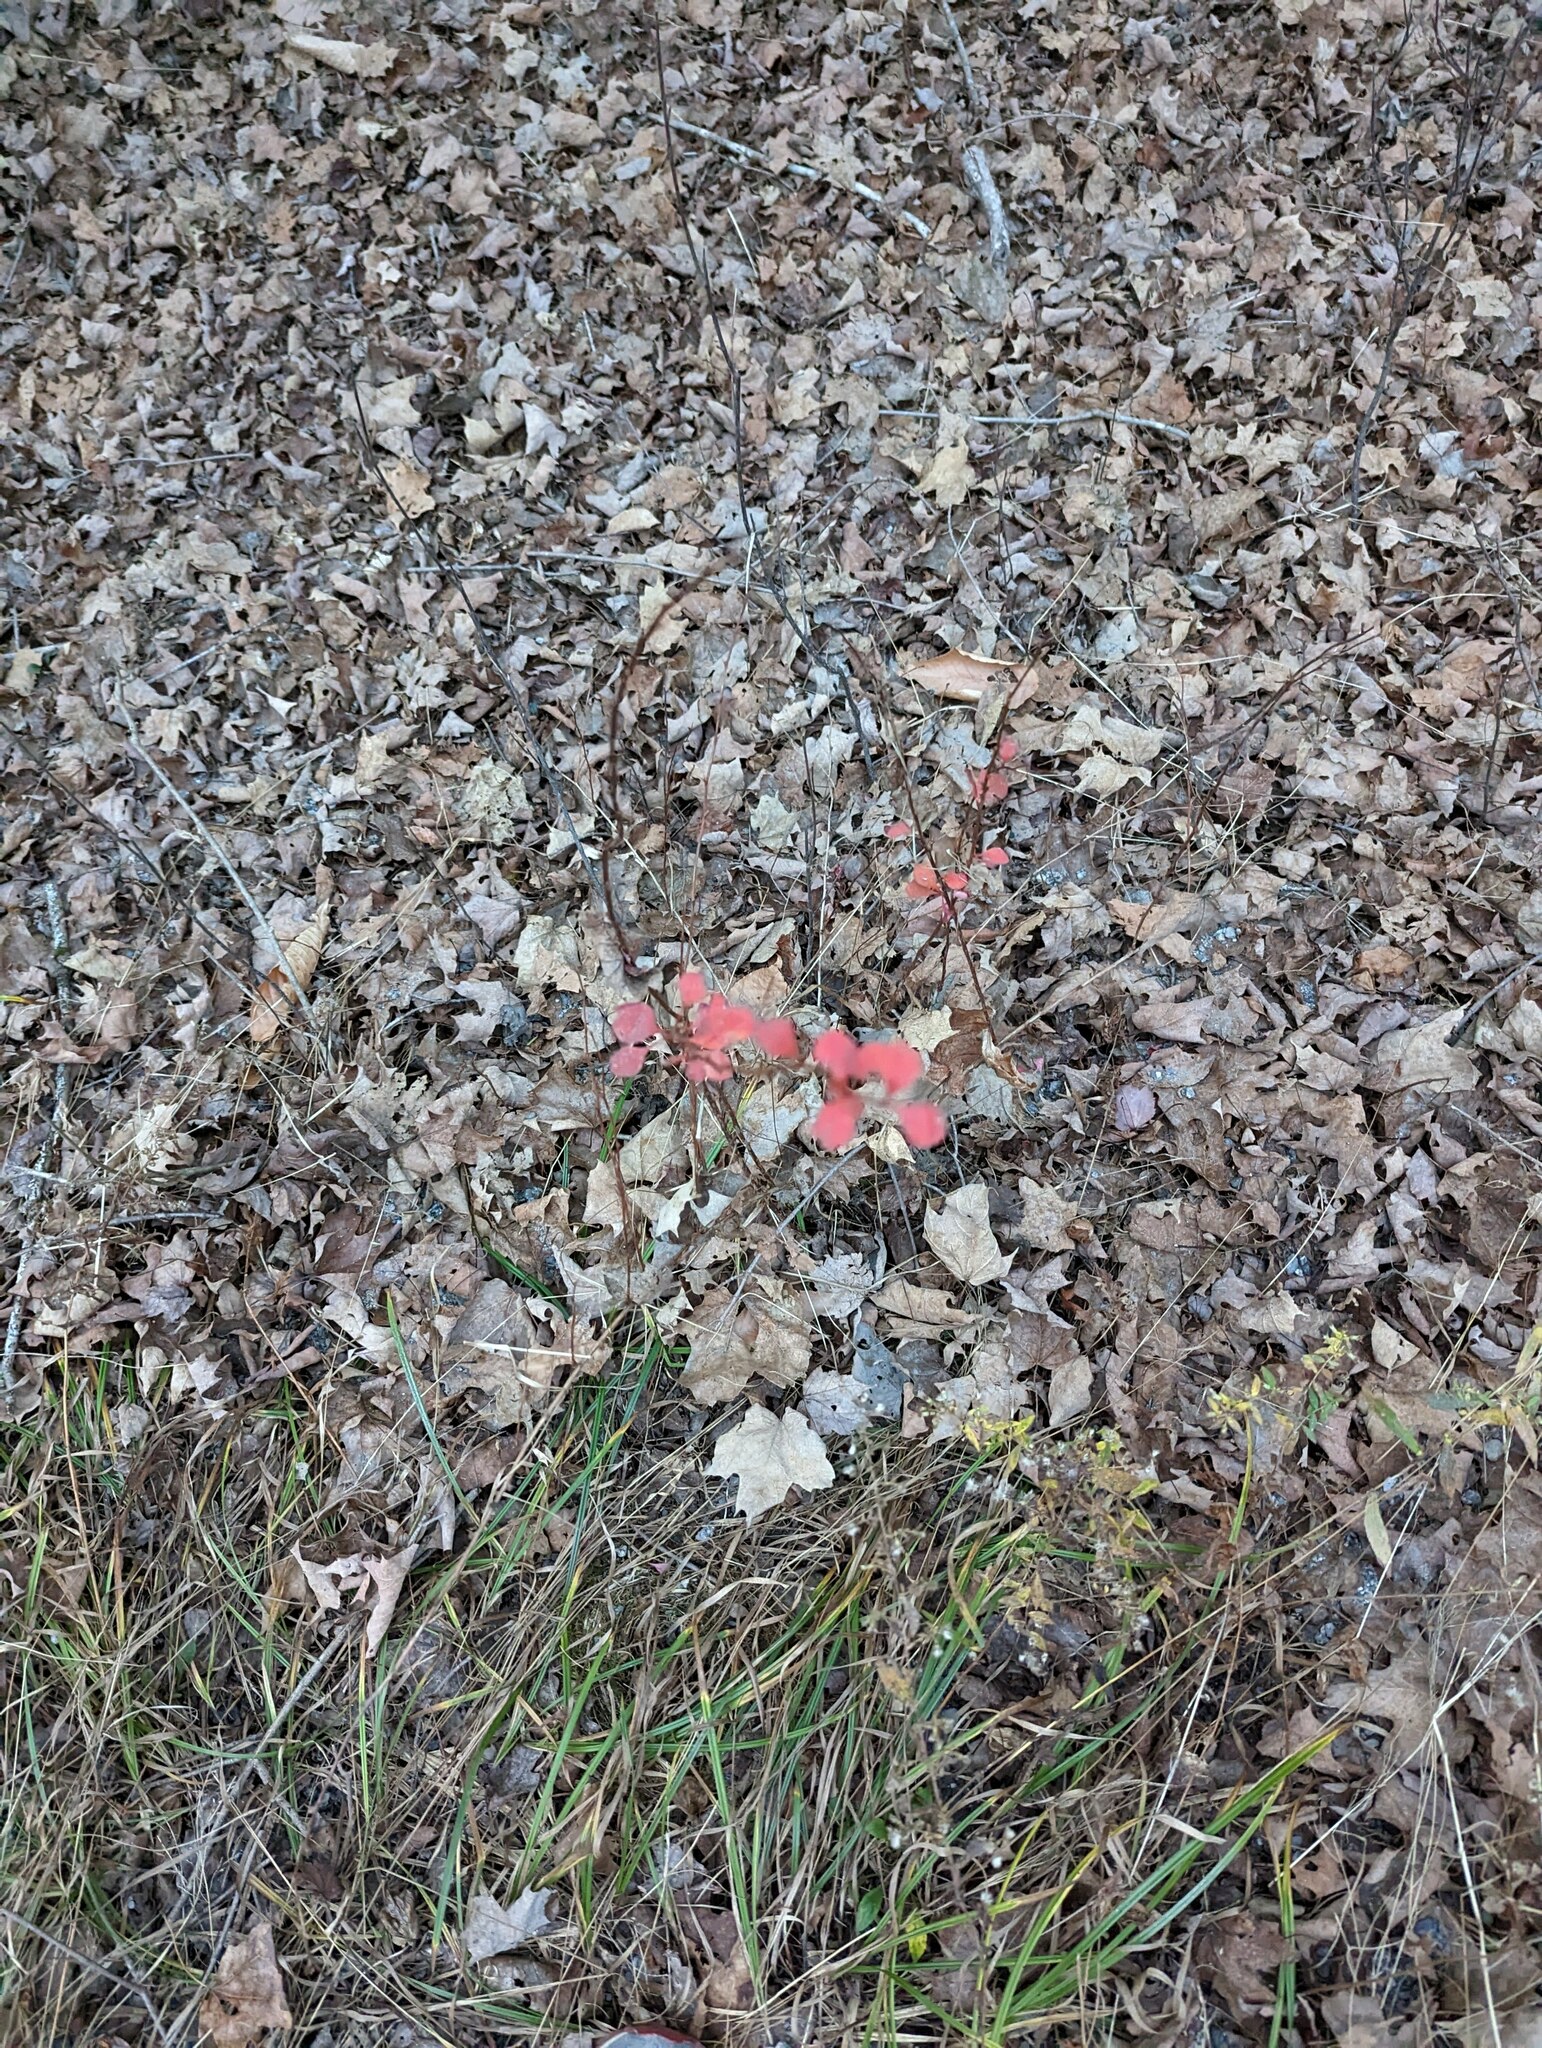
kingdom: Plantae
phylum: Tracheophyta
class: Magnoliopsida
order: Ranunculales
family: Berberidaceae
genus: Berberis
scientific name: Berberis thunbergii
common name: Japanese barberry
